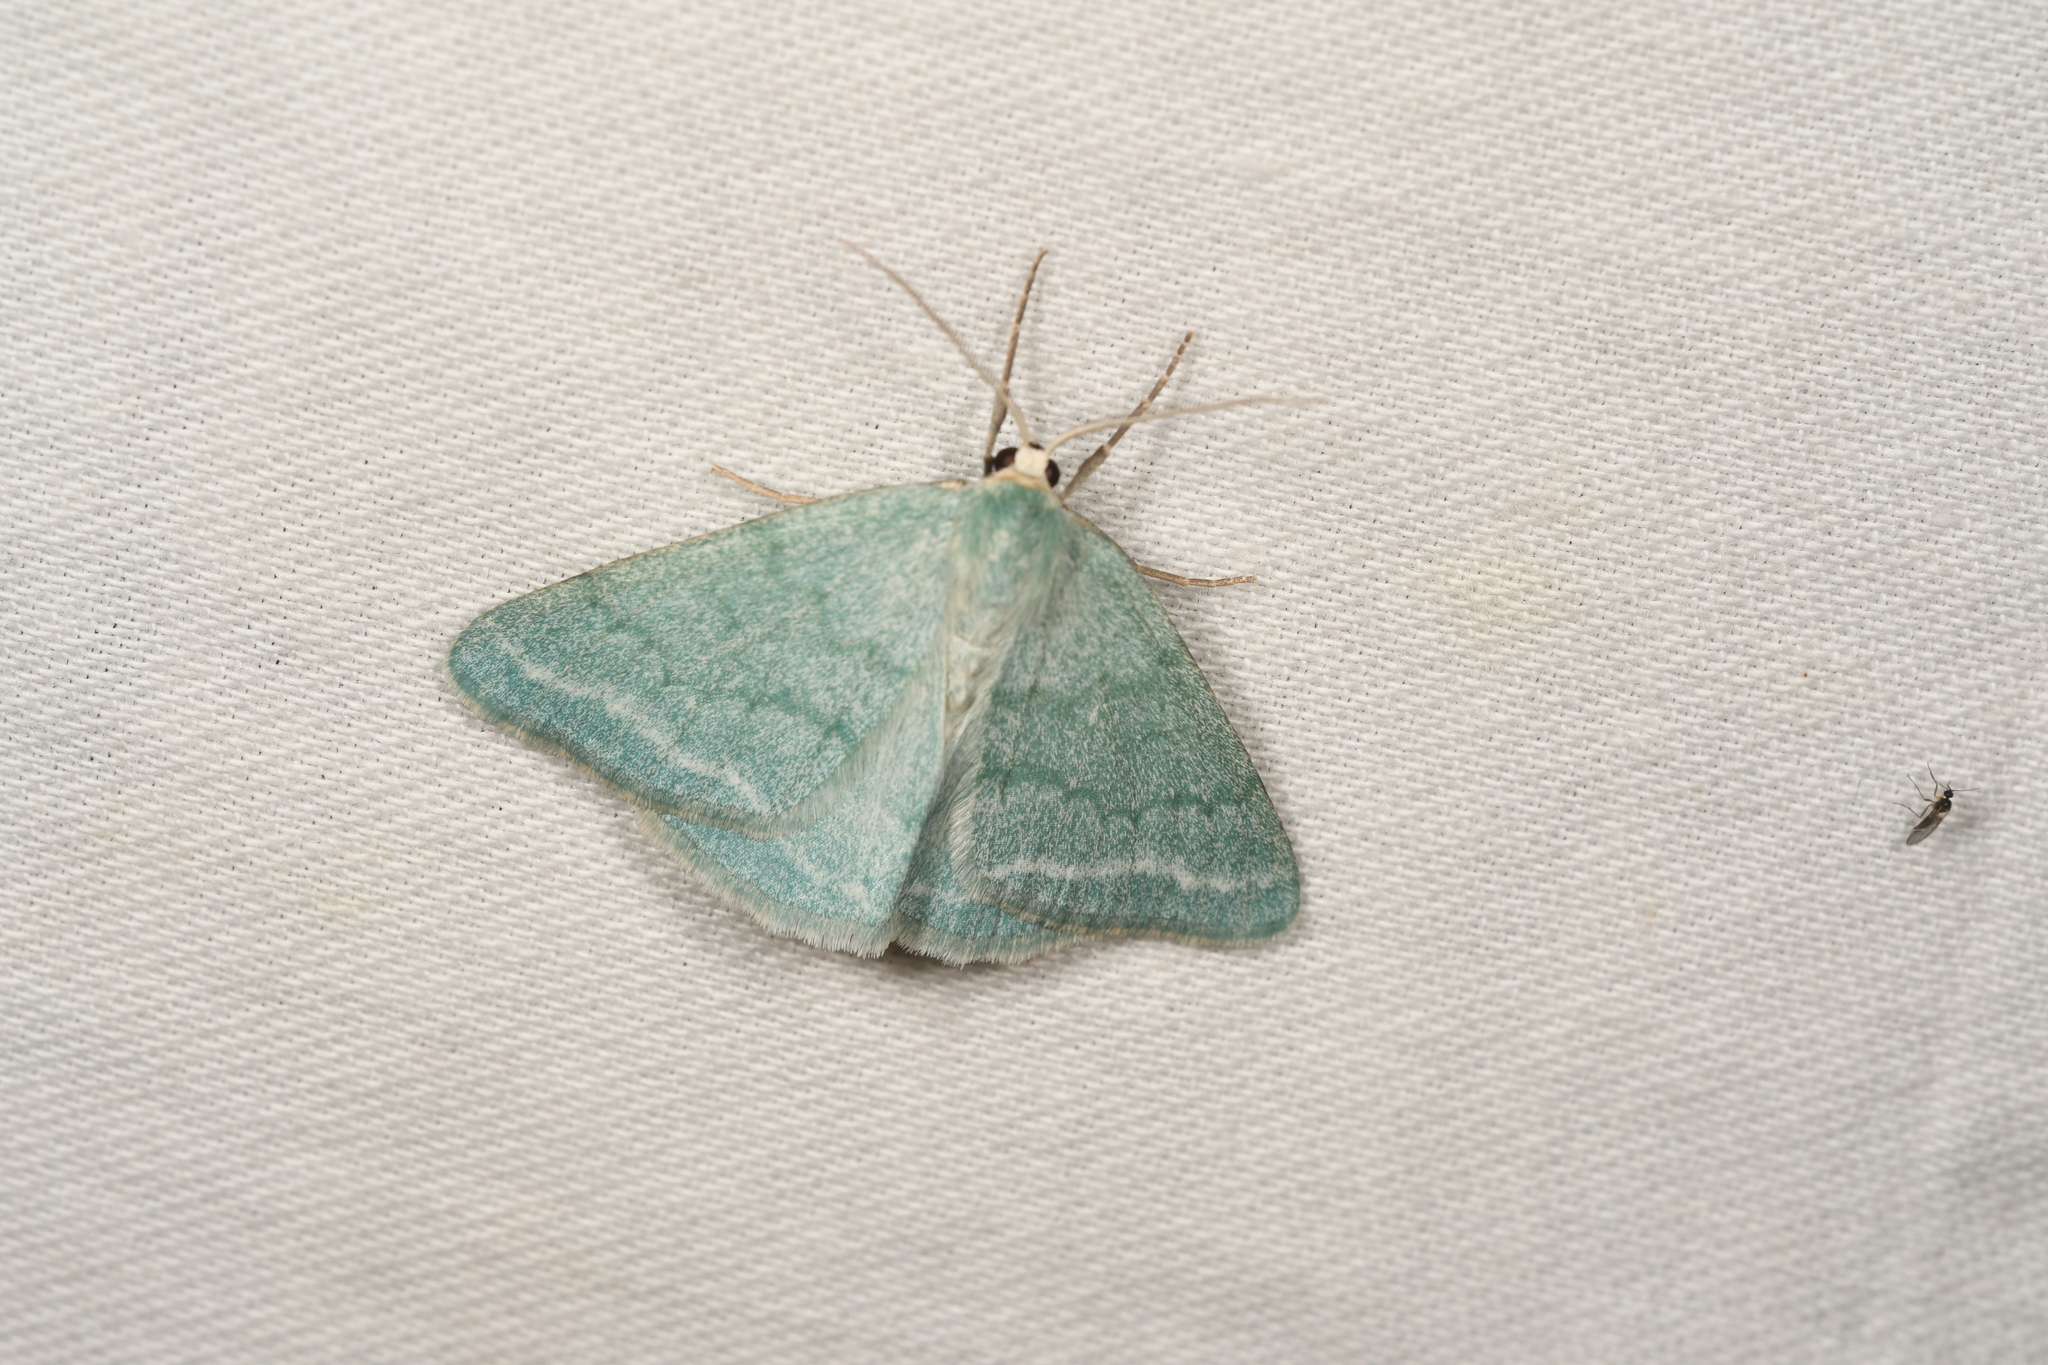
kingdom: Animalia
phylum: Arthropoda
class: Insecta
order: Lepidoptera
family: Geometridae
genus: Pseudoterpna
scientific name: Pseudoterpna pruinata
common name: Grass emerald
